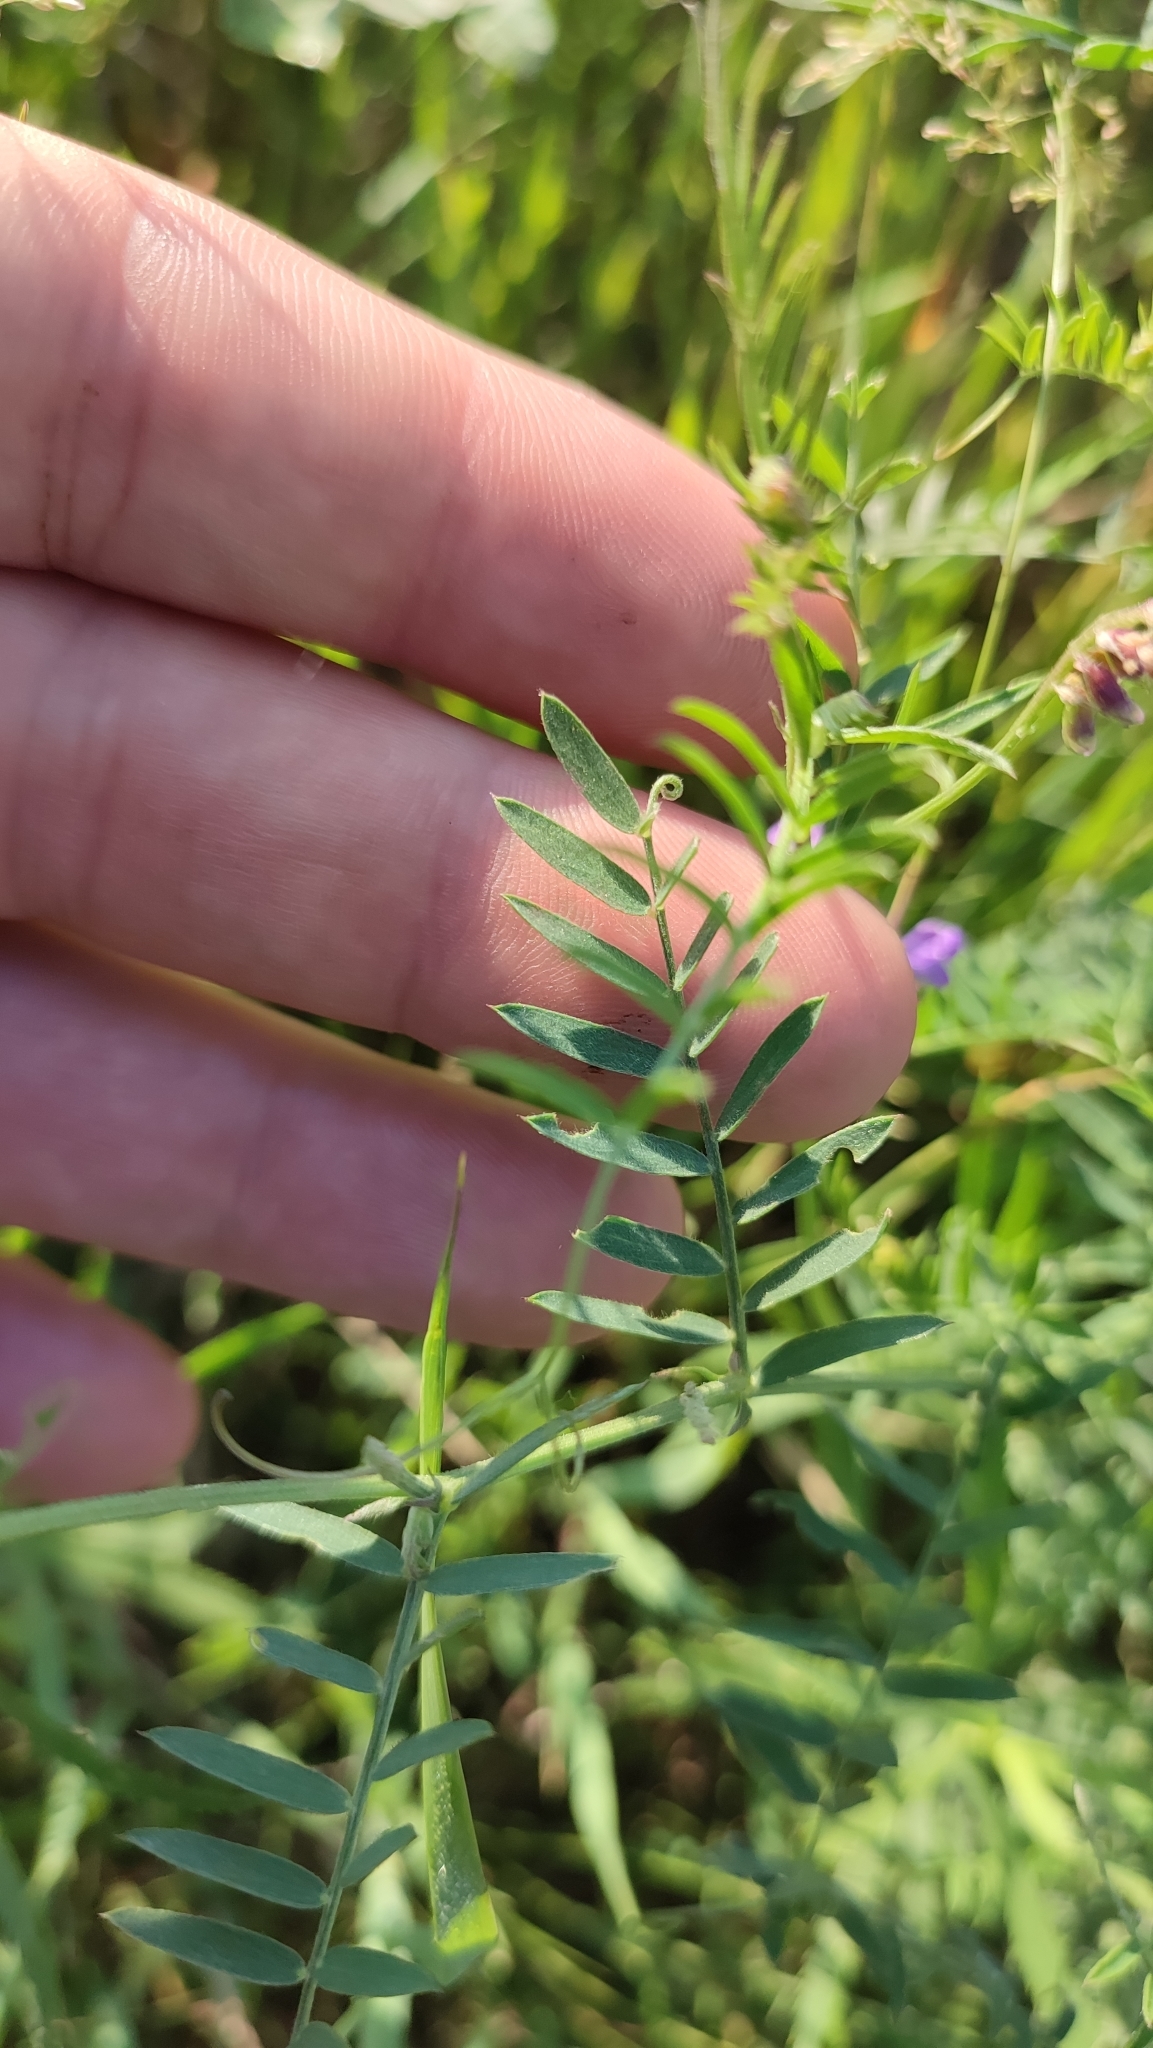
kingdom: Plantae
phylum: Tracheophyta
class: Magnoliopsida
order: Fabales
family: Fabaceae
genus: Vicia
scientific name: Vicia cracca
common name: Bird vetch
